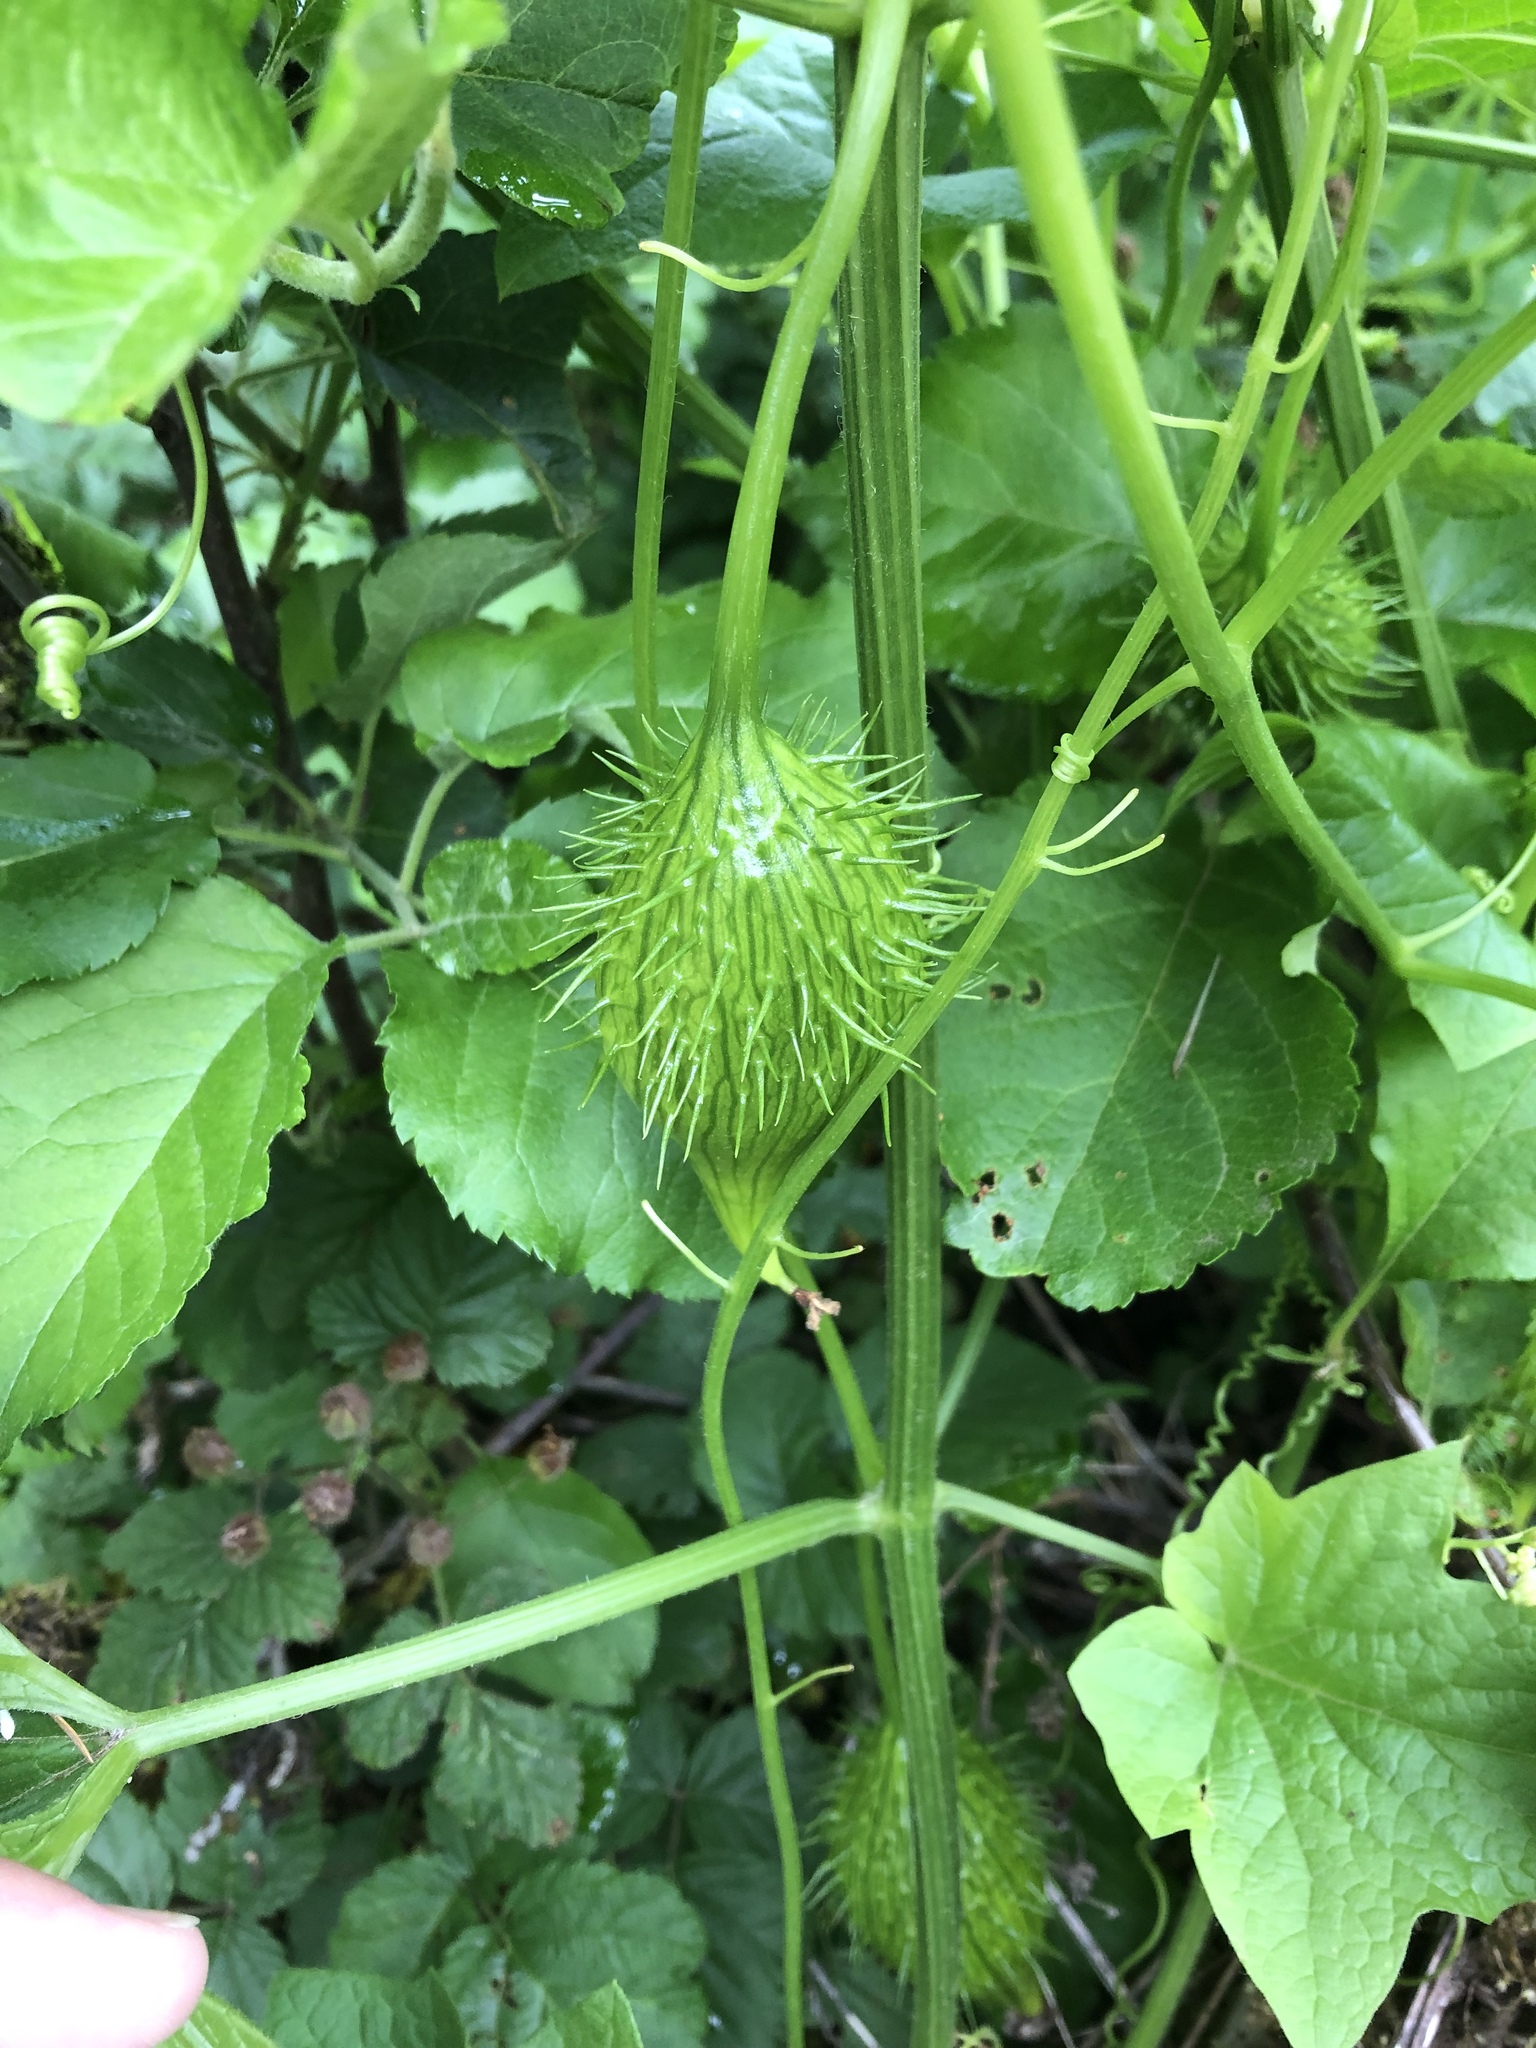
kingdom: Plantae
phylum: Tracheophyta
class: Magnoliopsida
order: Cucurbitales
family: Cucurbitaceae
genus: Marah
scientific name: Marah oregana
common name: Coastal manroot
